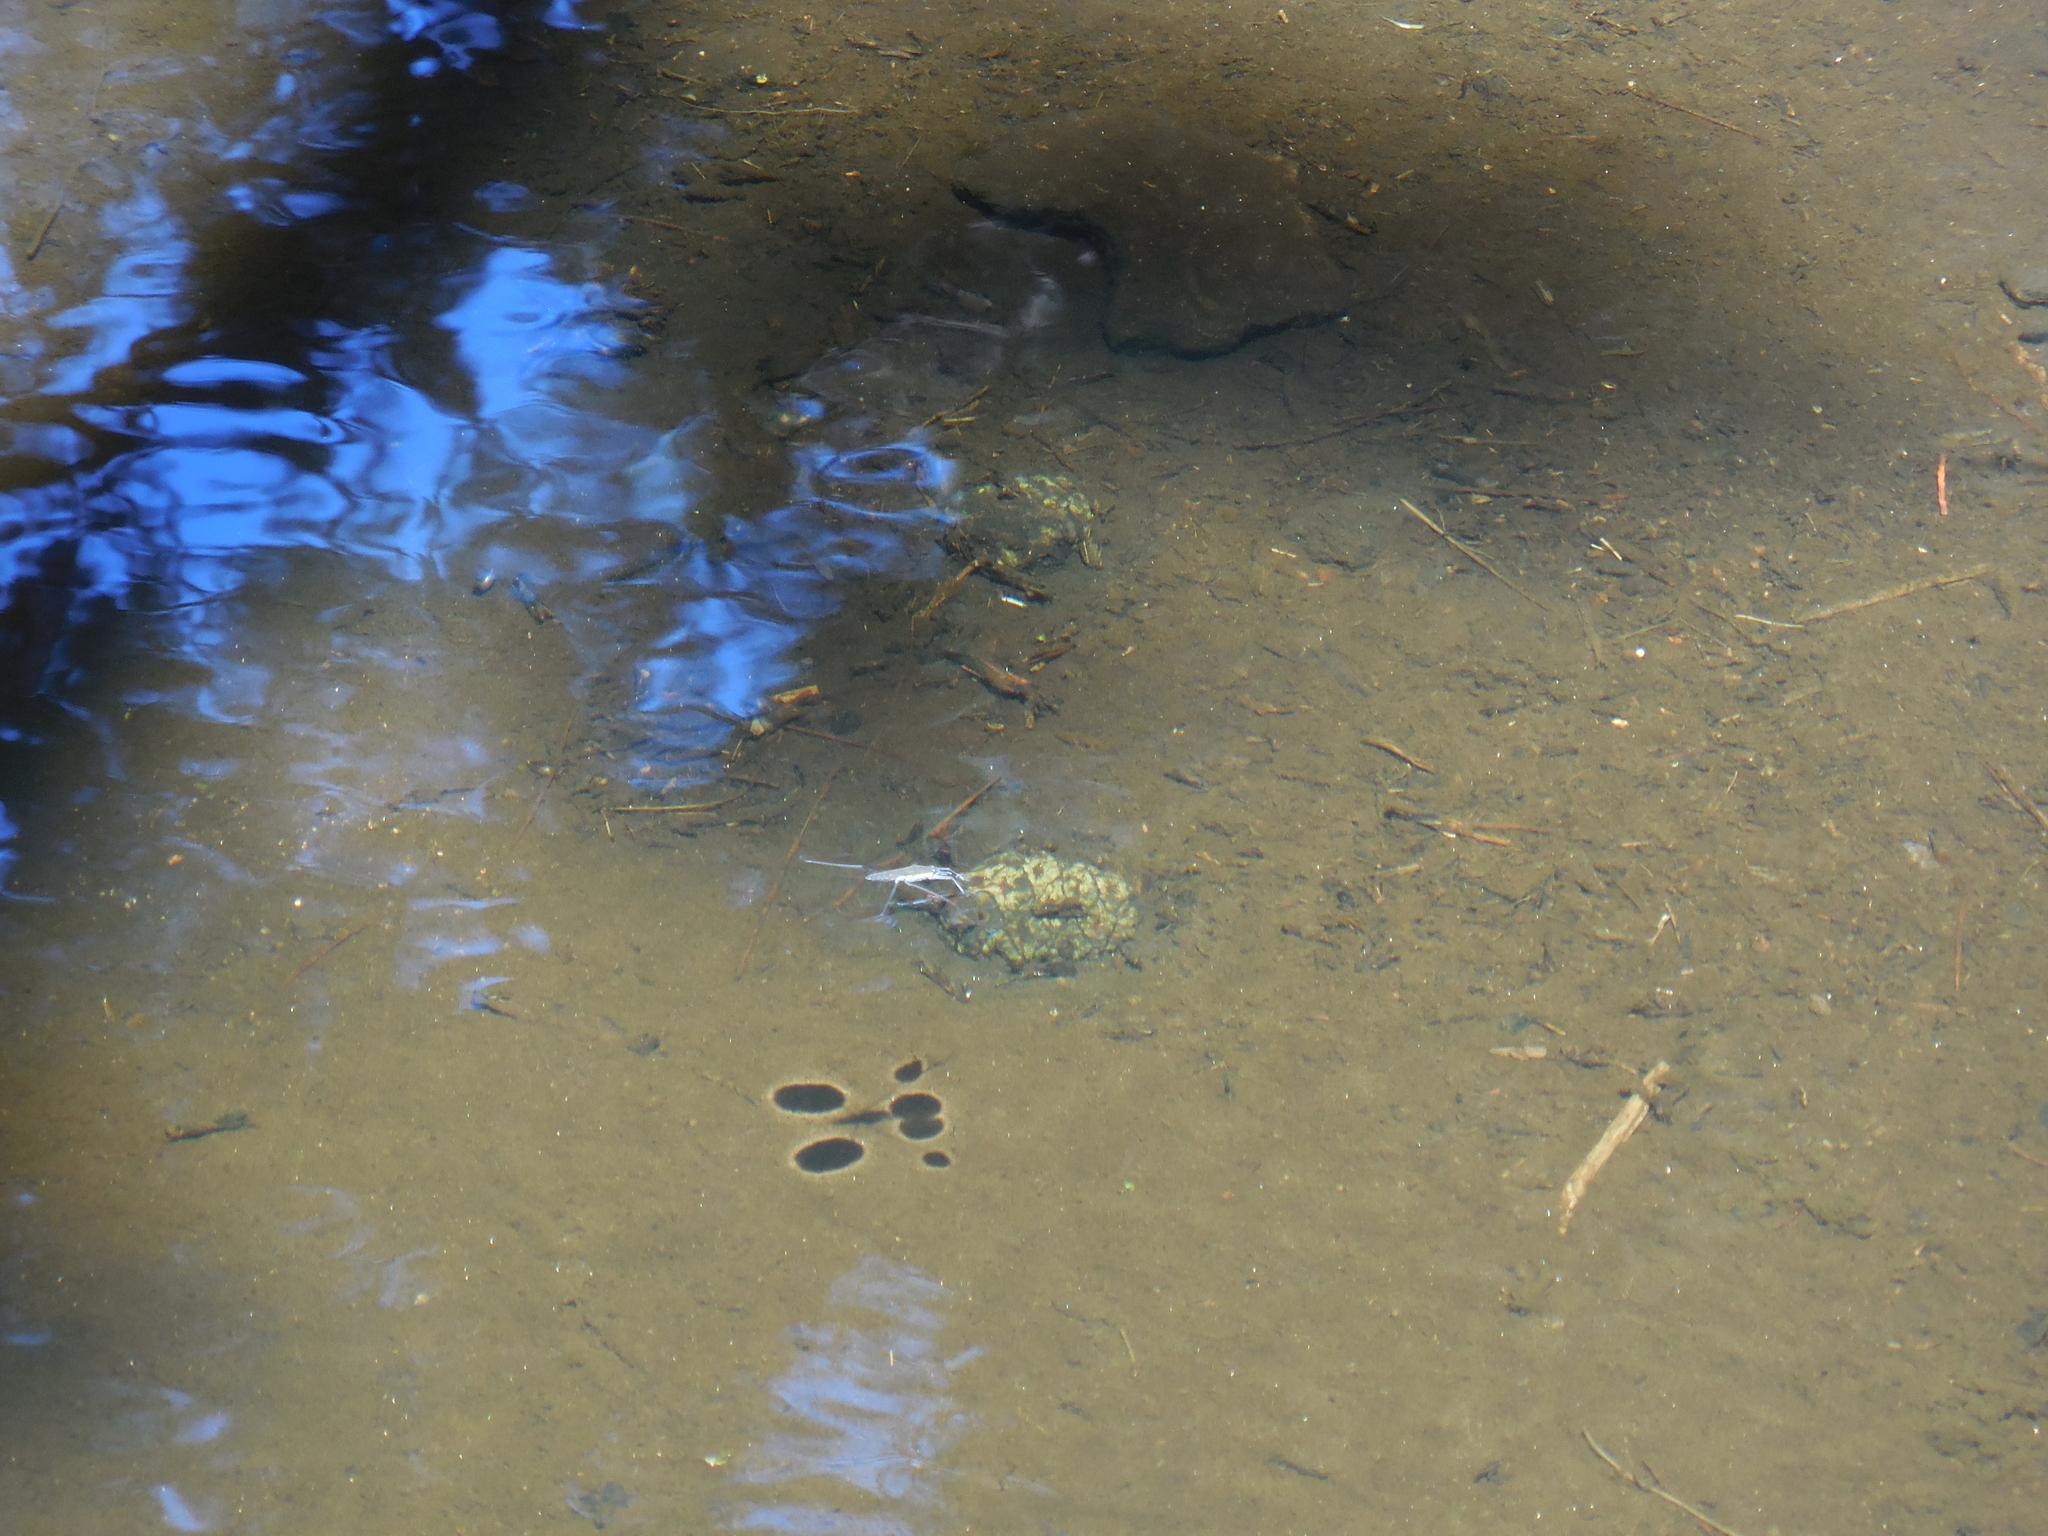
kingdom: Animalia
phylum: Arthropoda
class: Insecta
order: Hemiptera
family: Gerridae
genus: Aquarius
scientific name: Aquarius remigis
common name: Common water strider
